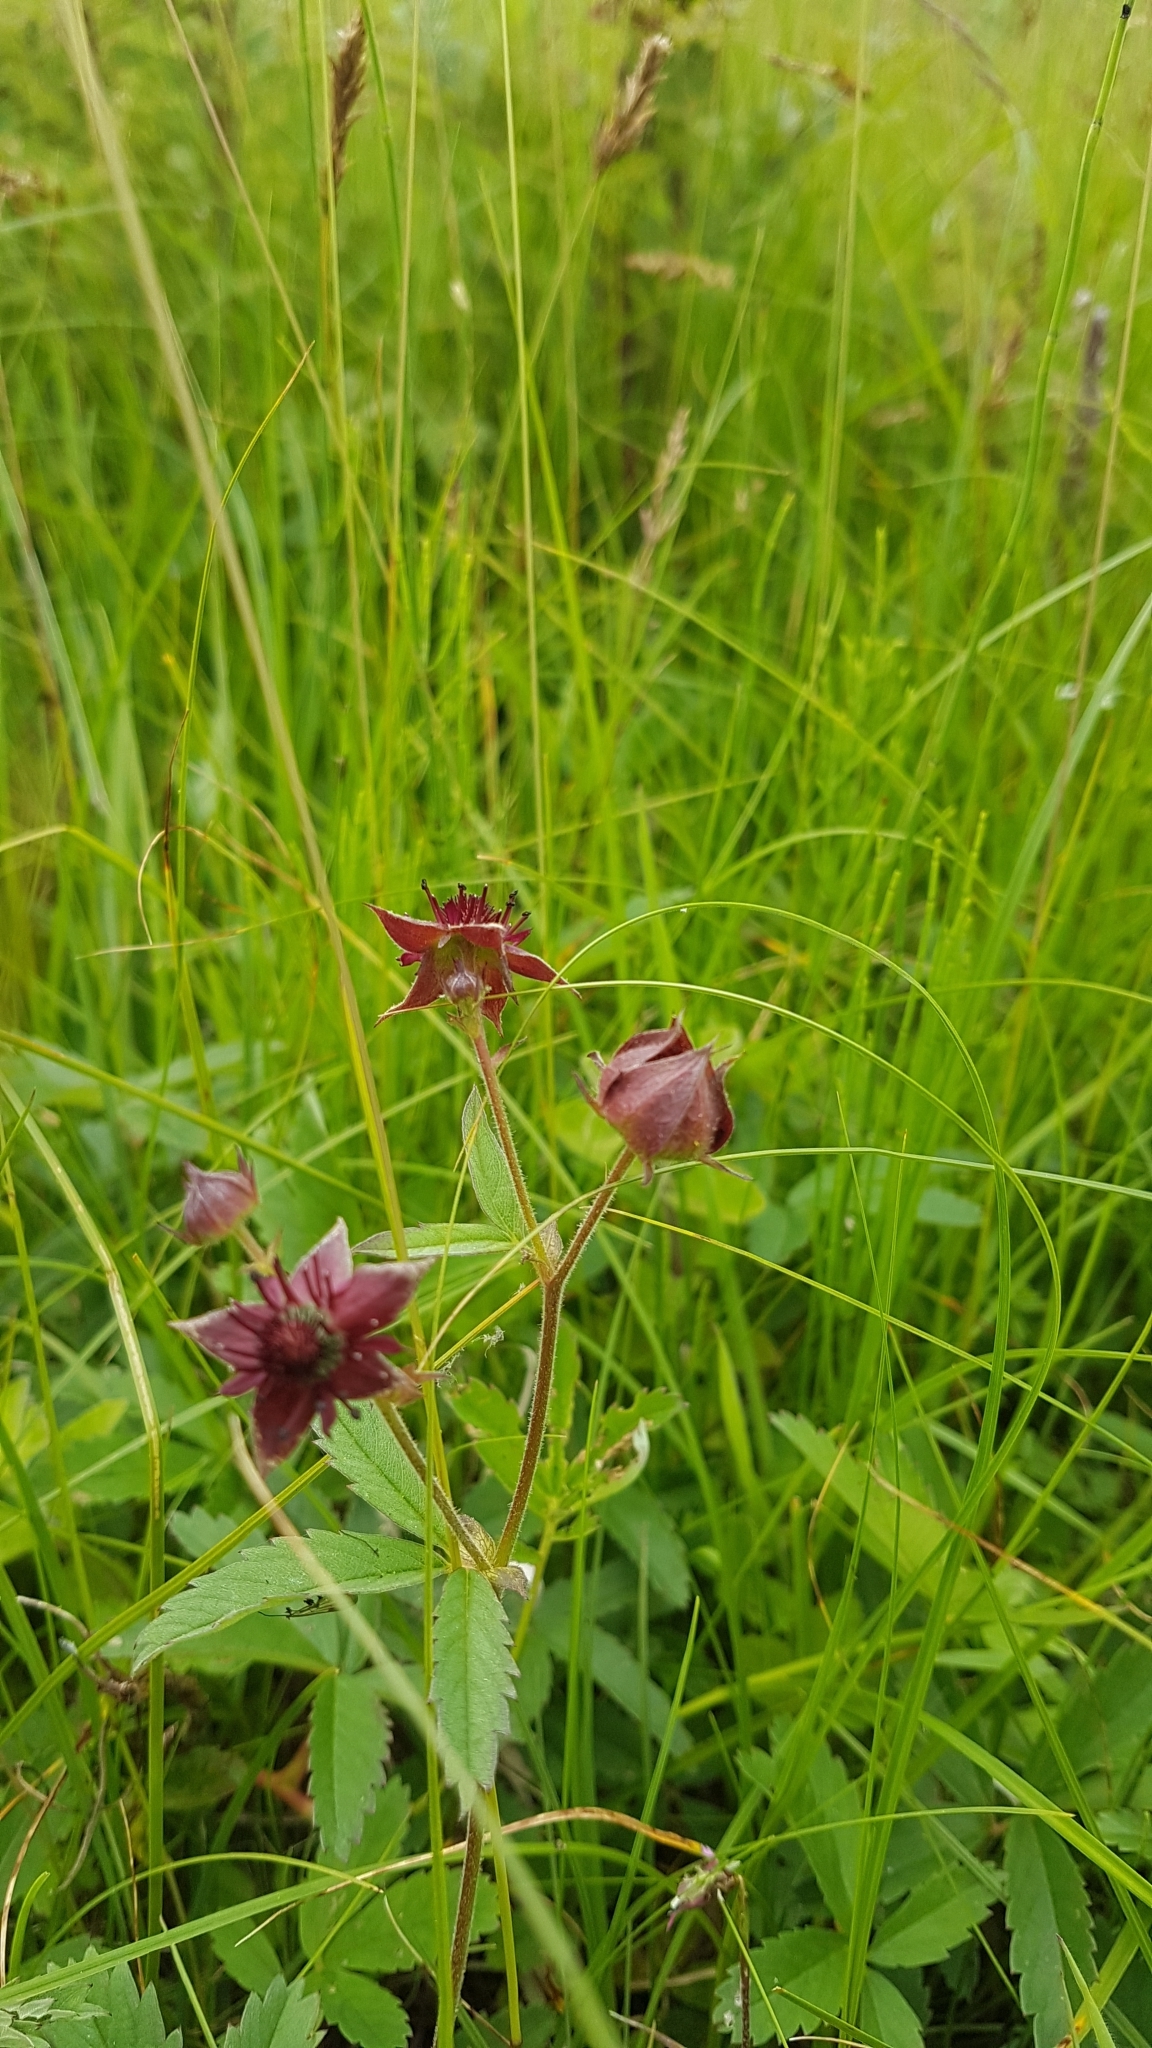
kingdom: Plantae
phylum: Tracheophyta
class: Magnoliopsida
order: Rosales
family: Rosaceae
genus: Comarum
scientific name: Comarum palustre
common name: Marsh cinquefoil
